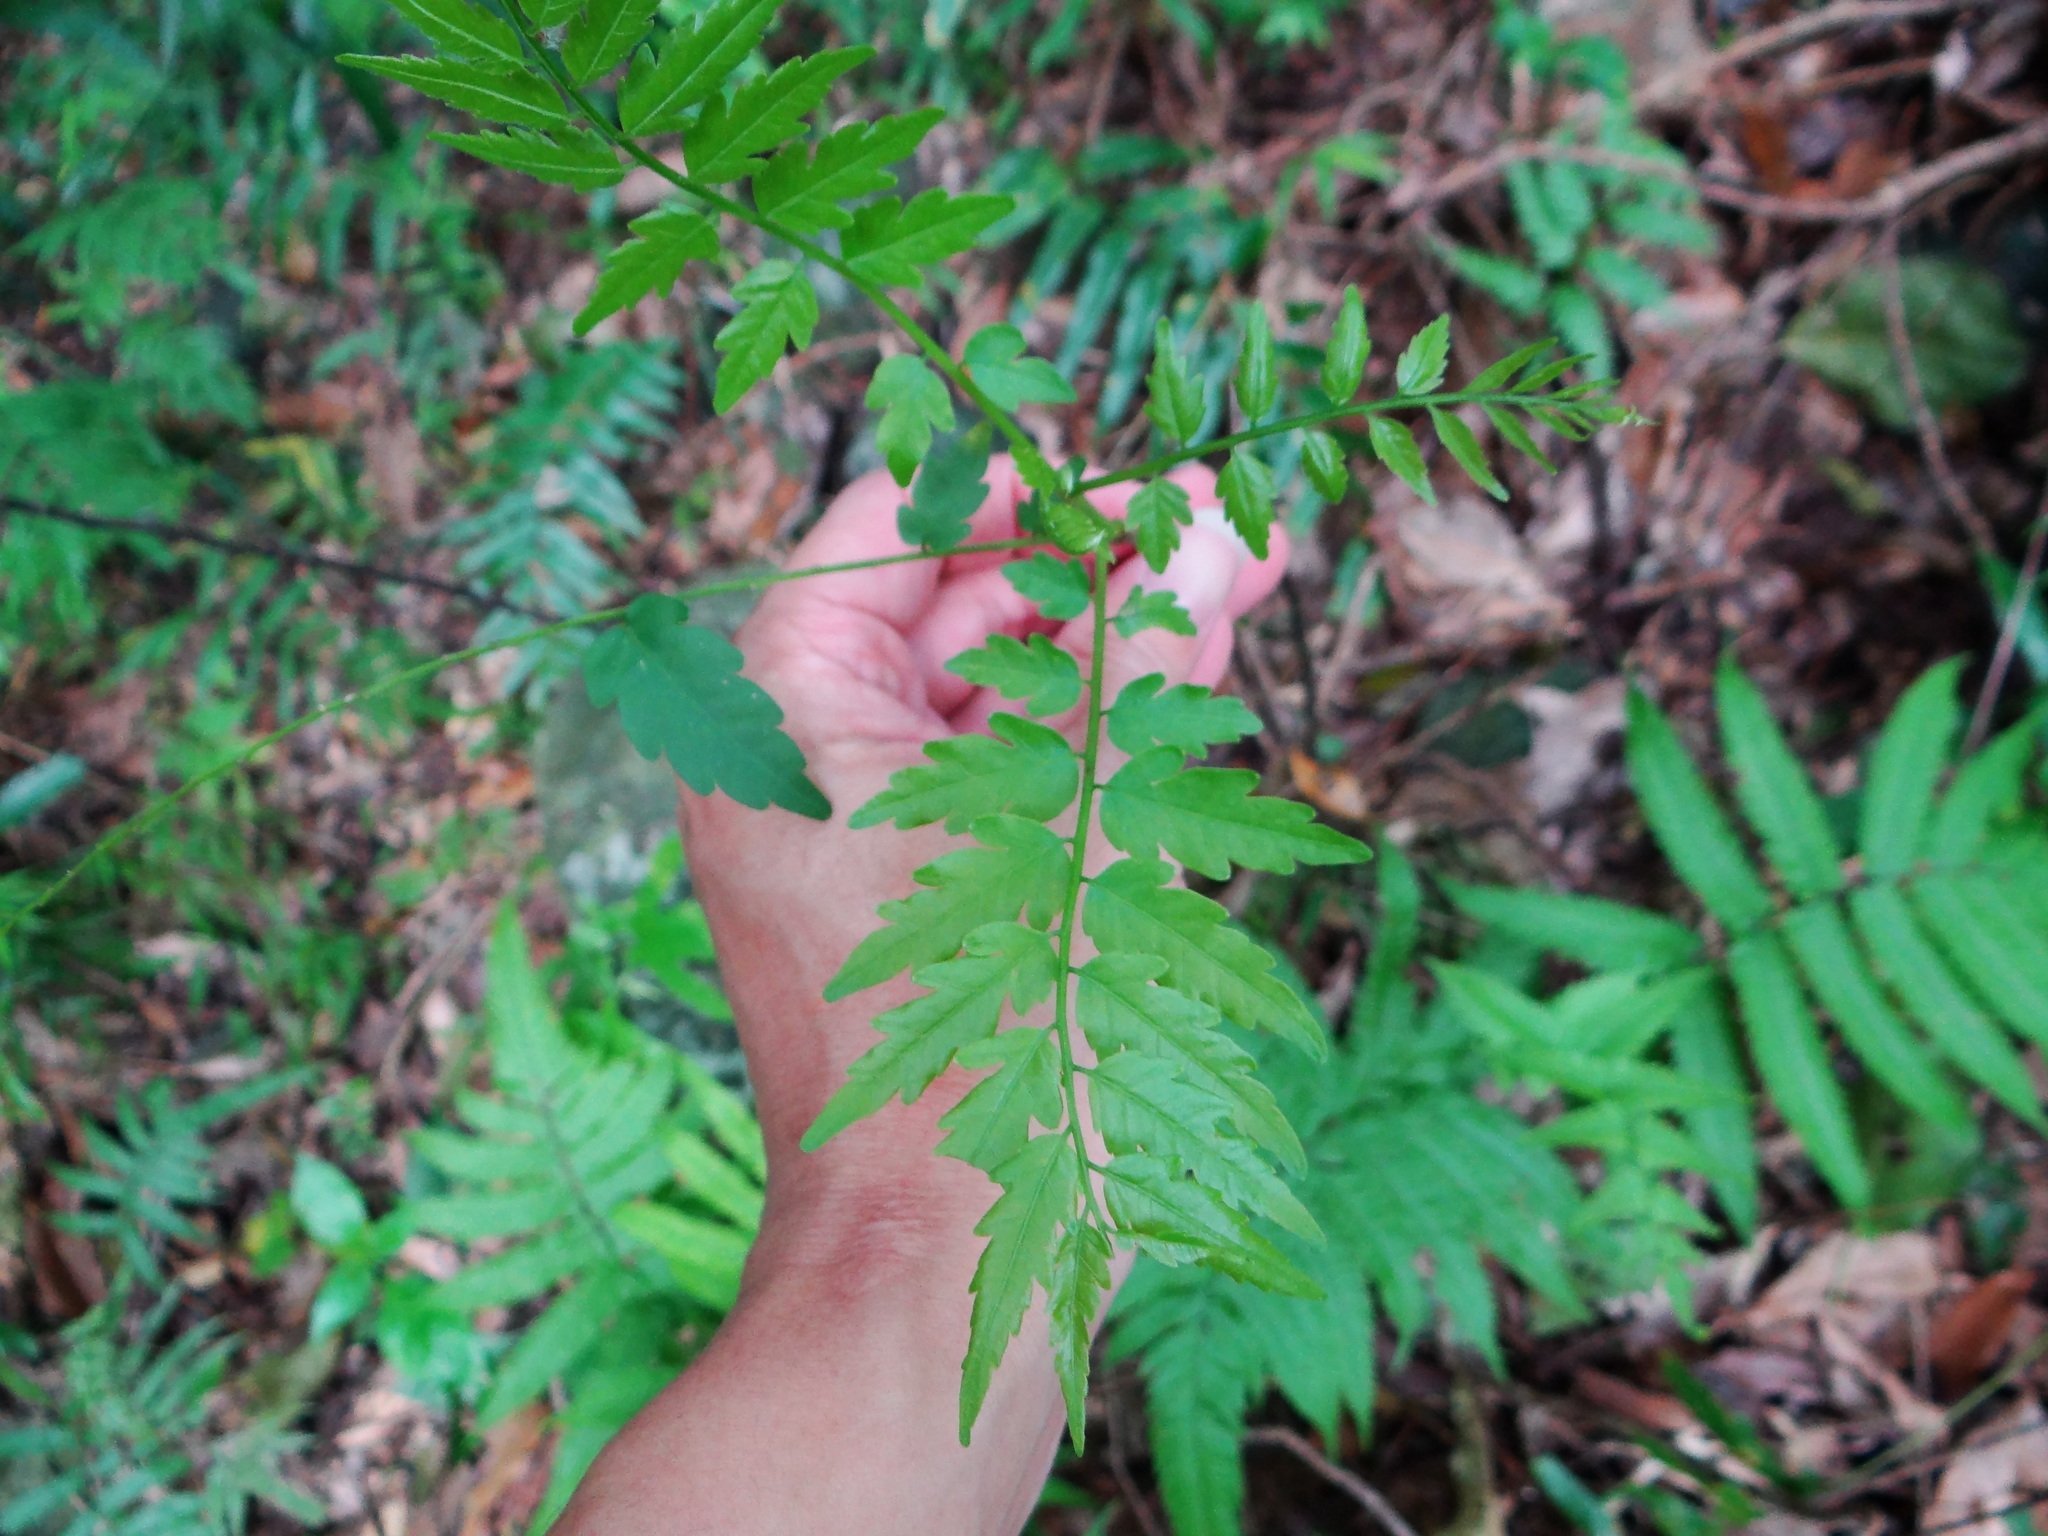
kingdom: Plantae
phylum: Tracheophyta
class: Magnoliopsida
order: Sapindales
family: Sapindaceae
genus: Eurycorymbus
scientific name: Eurycorymbus cavaleriei
